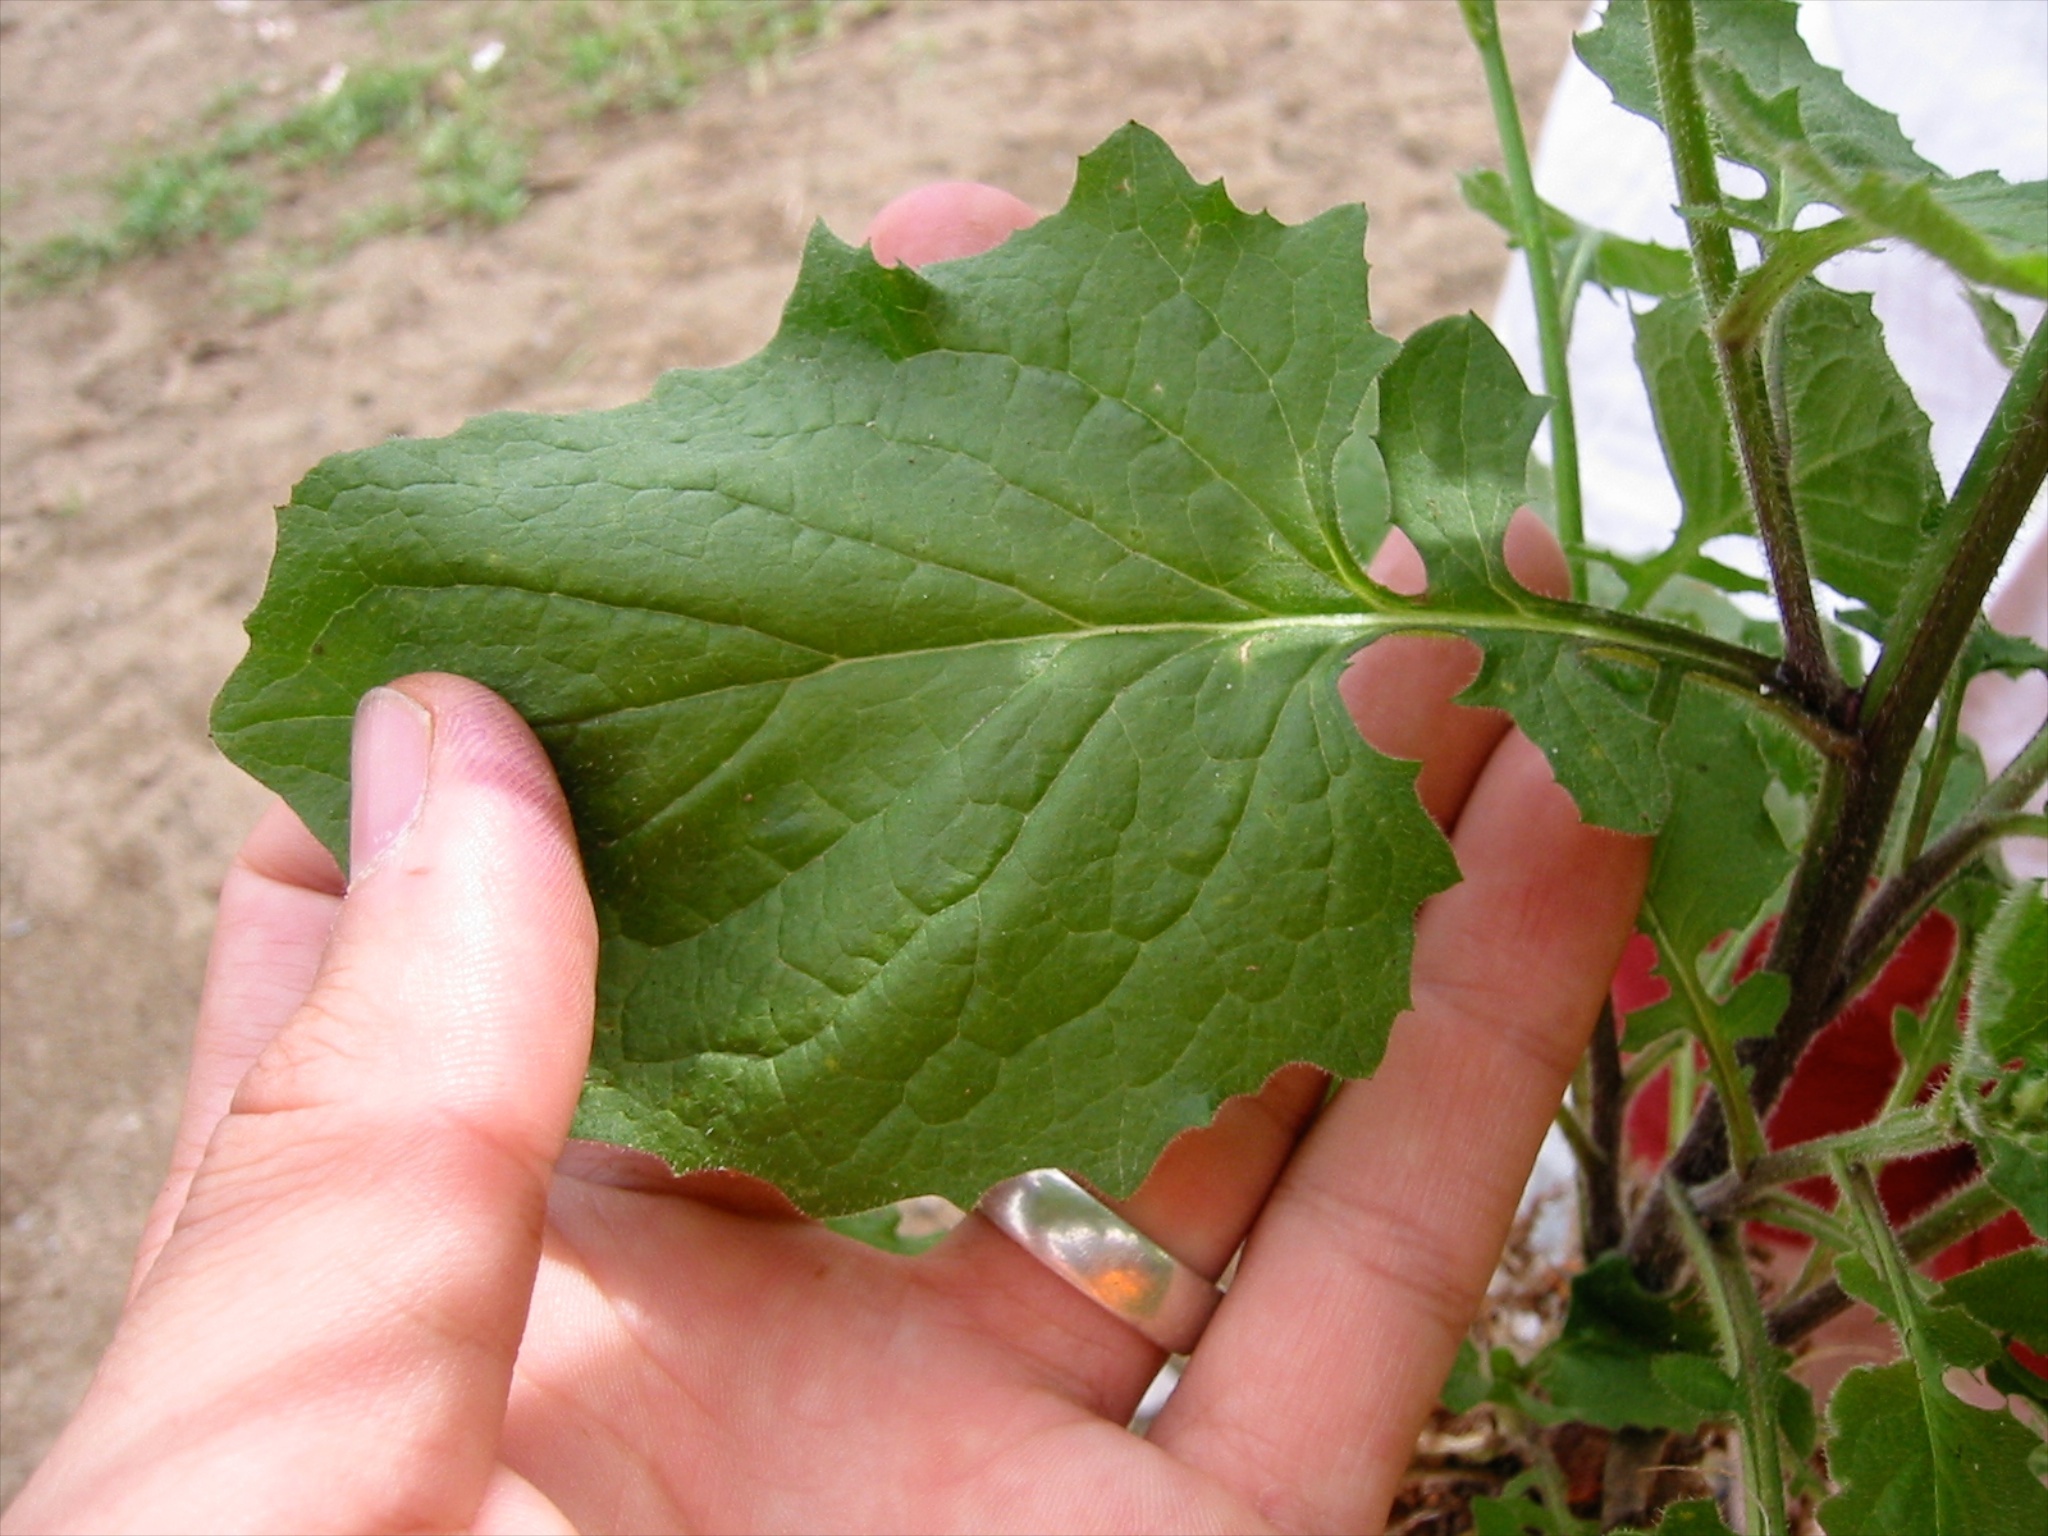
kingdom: Plantae
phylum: Tracheophyta
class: Magnoliopsida
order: Asterales
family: Asteraceae
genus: Lapsana
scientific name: Lapsana communis
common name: Nipplewort
